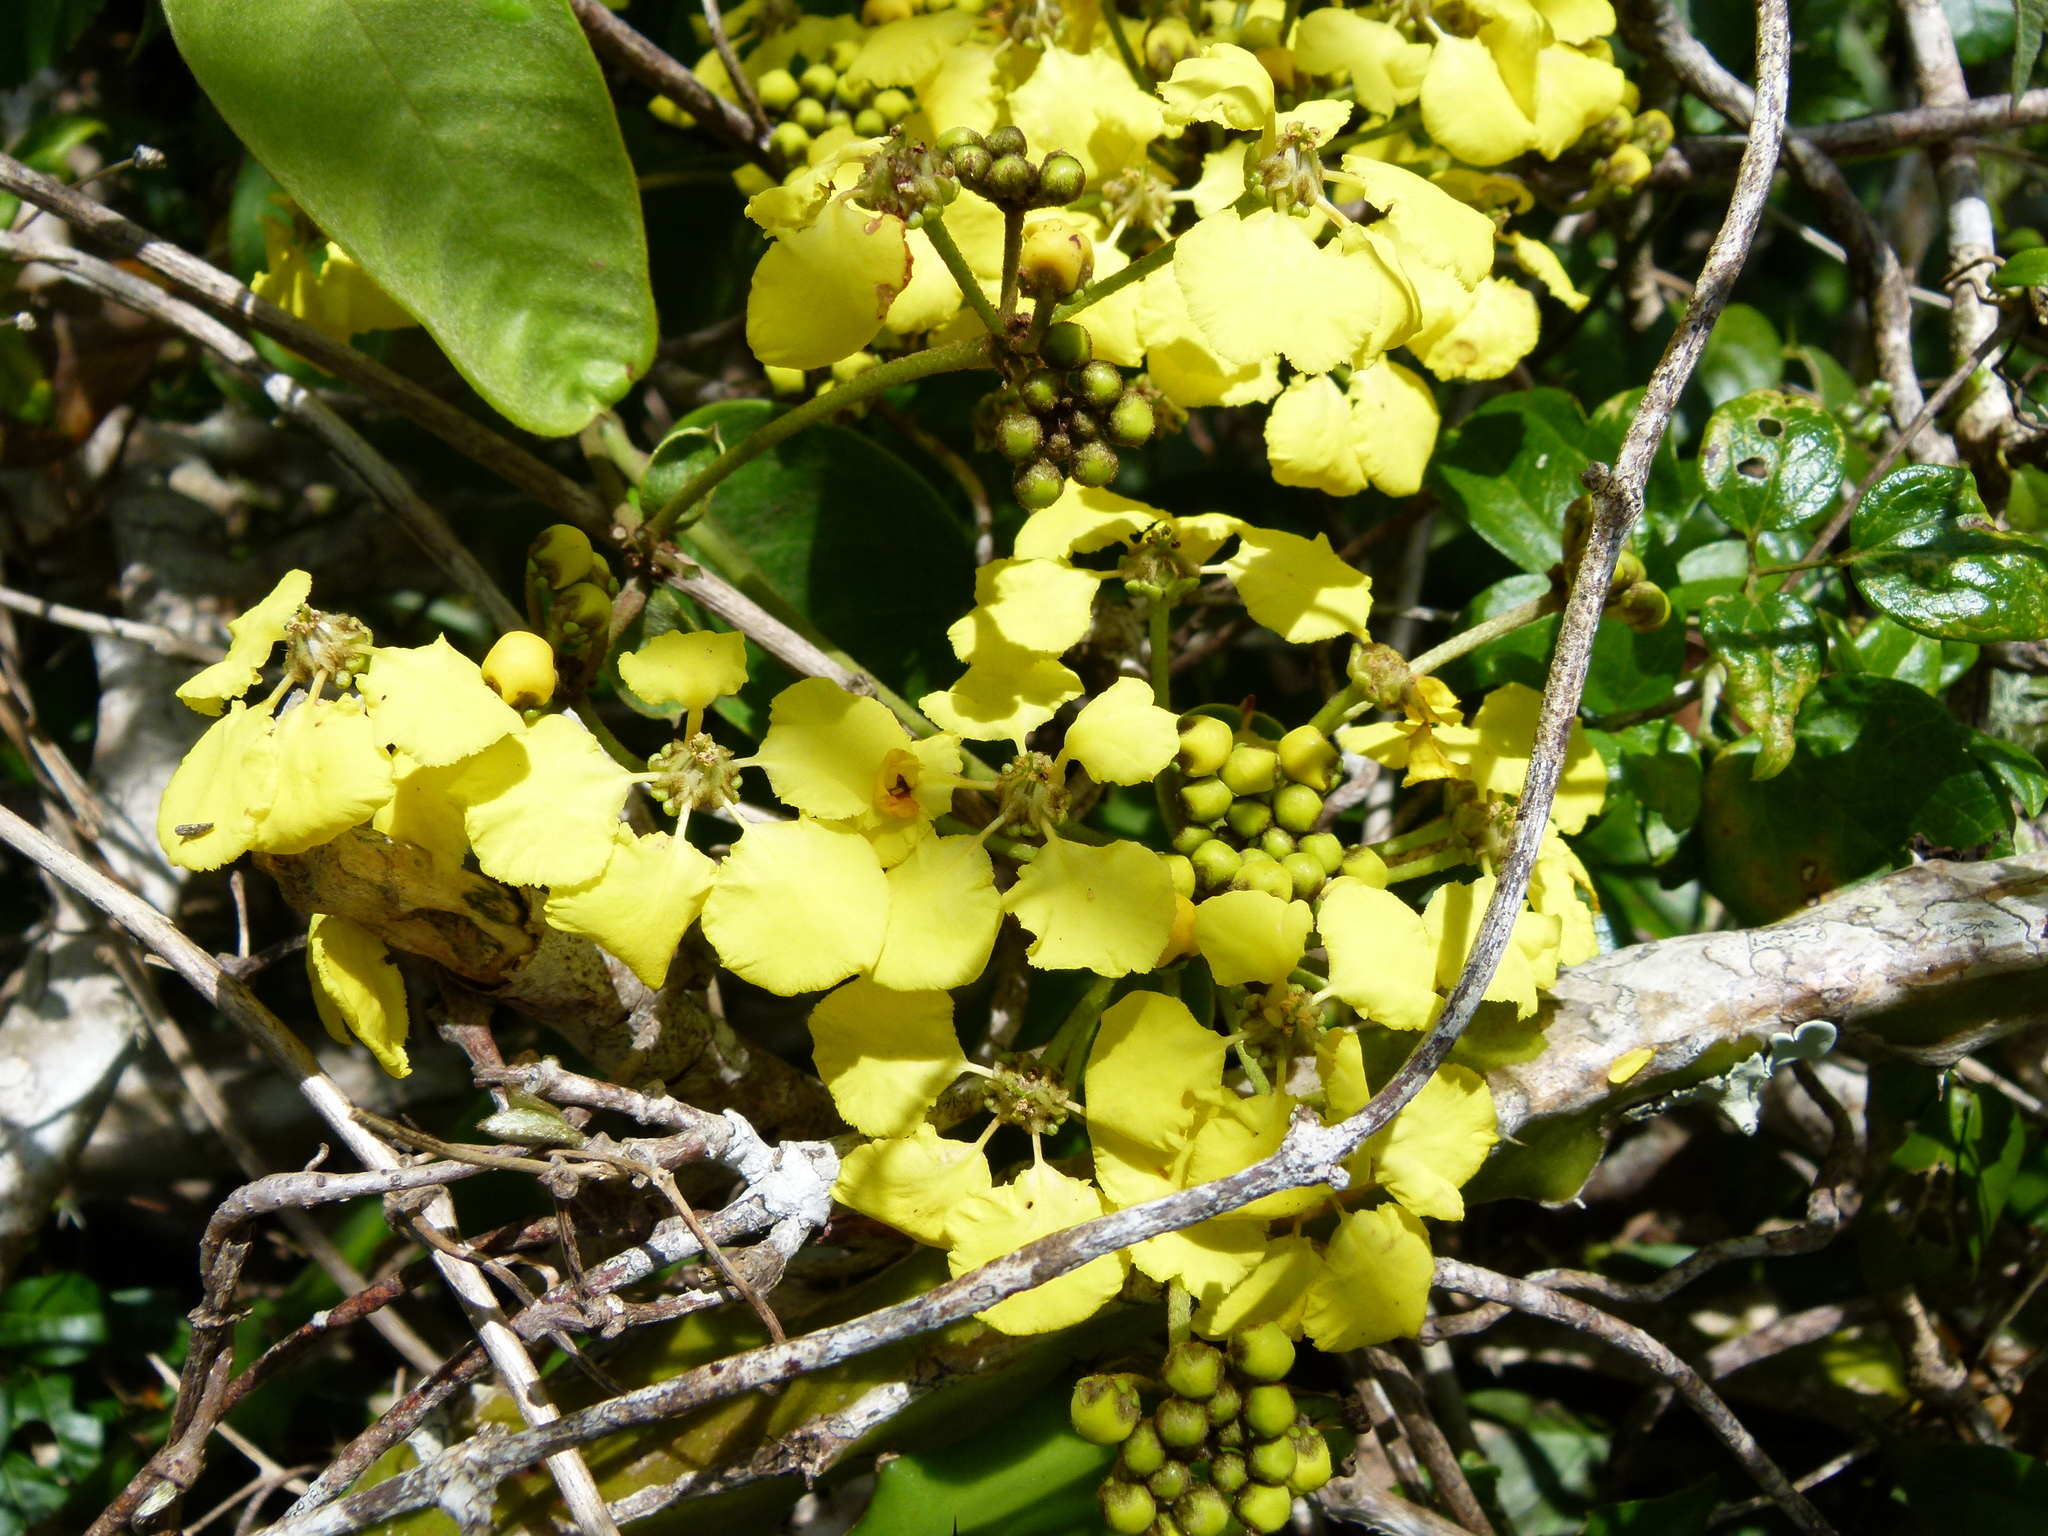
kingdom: Plantae
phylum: Tracheophyta
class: Magnoliopsida
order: Malpighiales
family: Malpighiaceae
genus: Stigmaphyllon
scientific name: Stigmaphyllon emarginatum
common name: Monarch amazonvine
